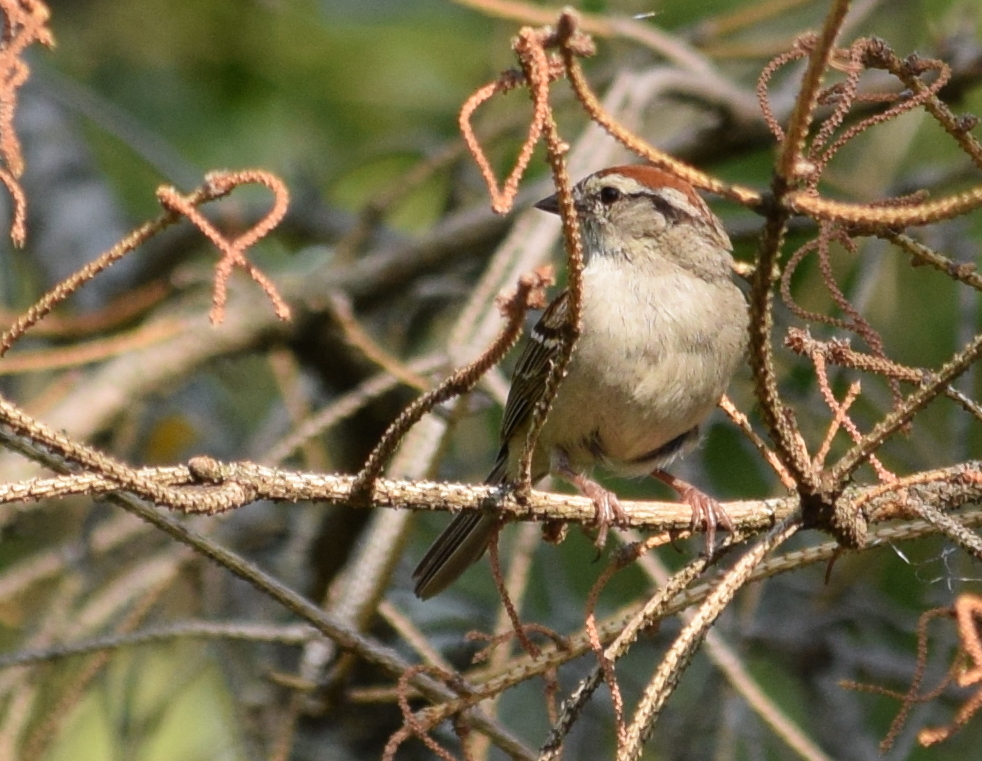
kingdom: Animalia
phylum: Chordata
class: Aves
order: Passeriformes
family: Passerellidae
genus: Spizella
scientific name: Spizella passerina
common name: Chipping sparrow
